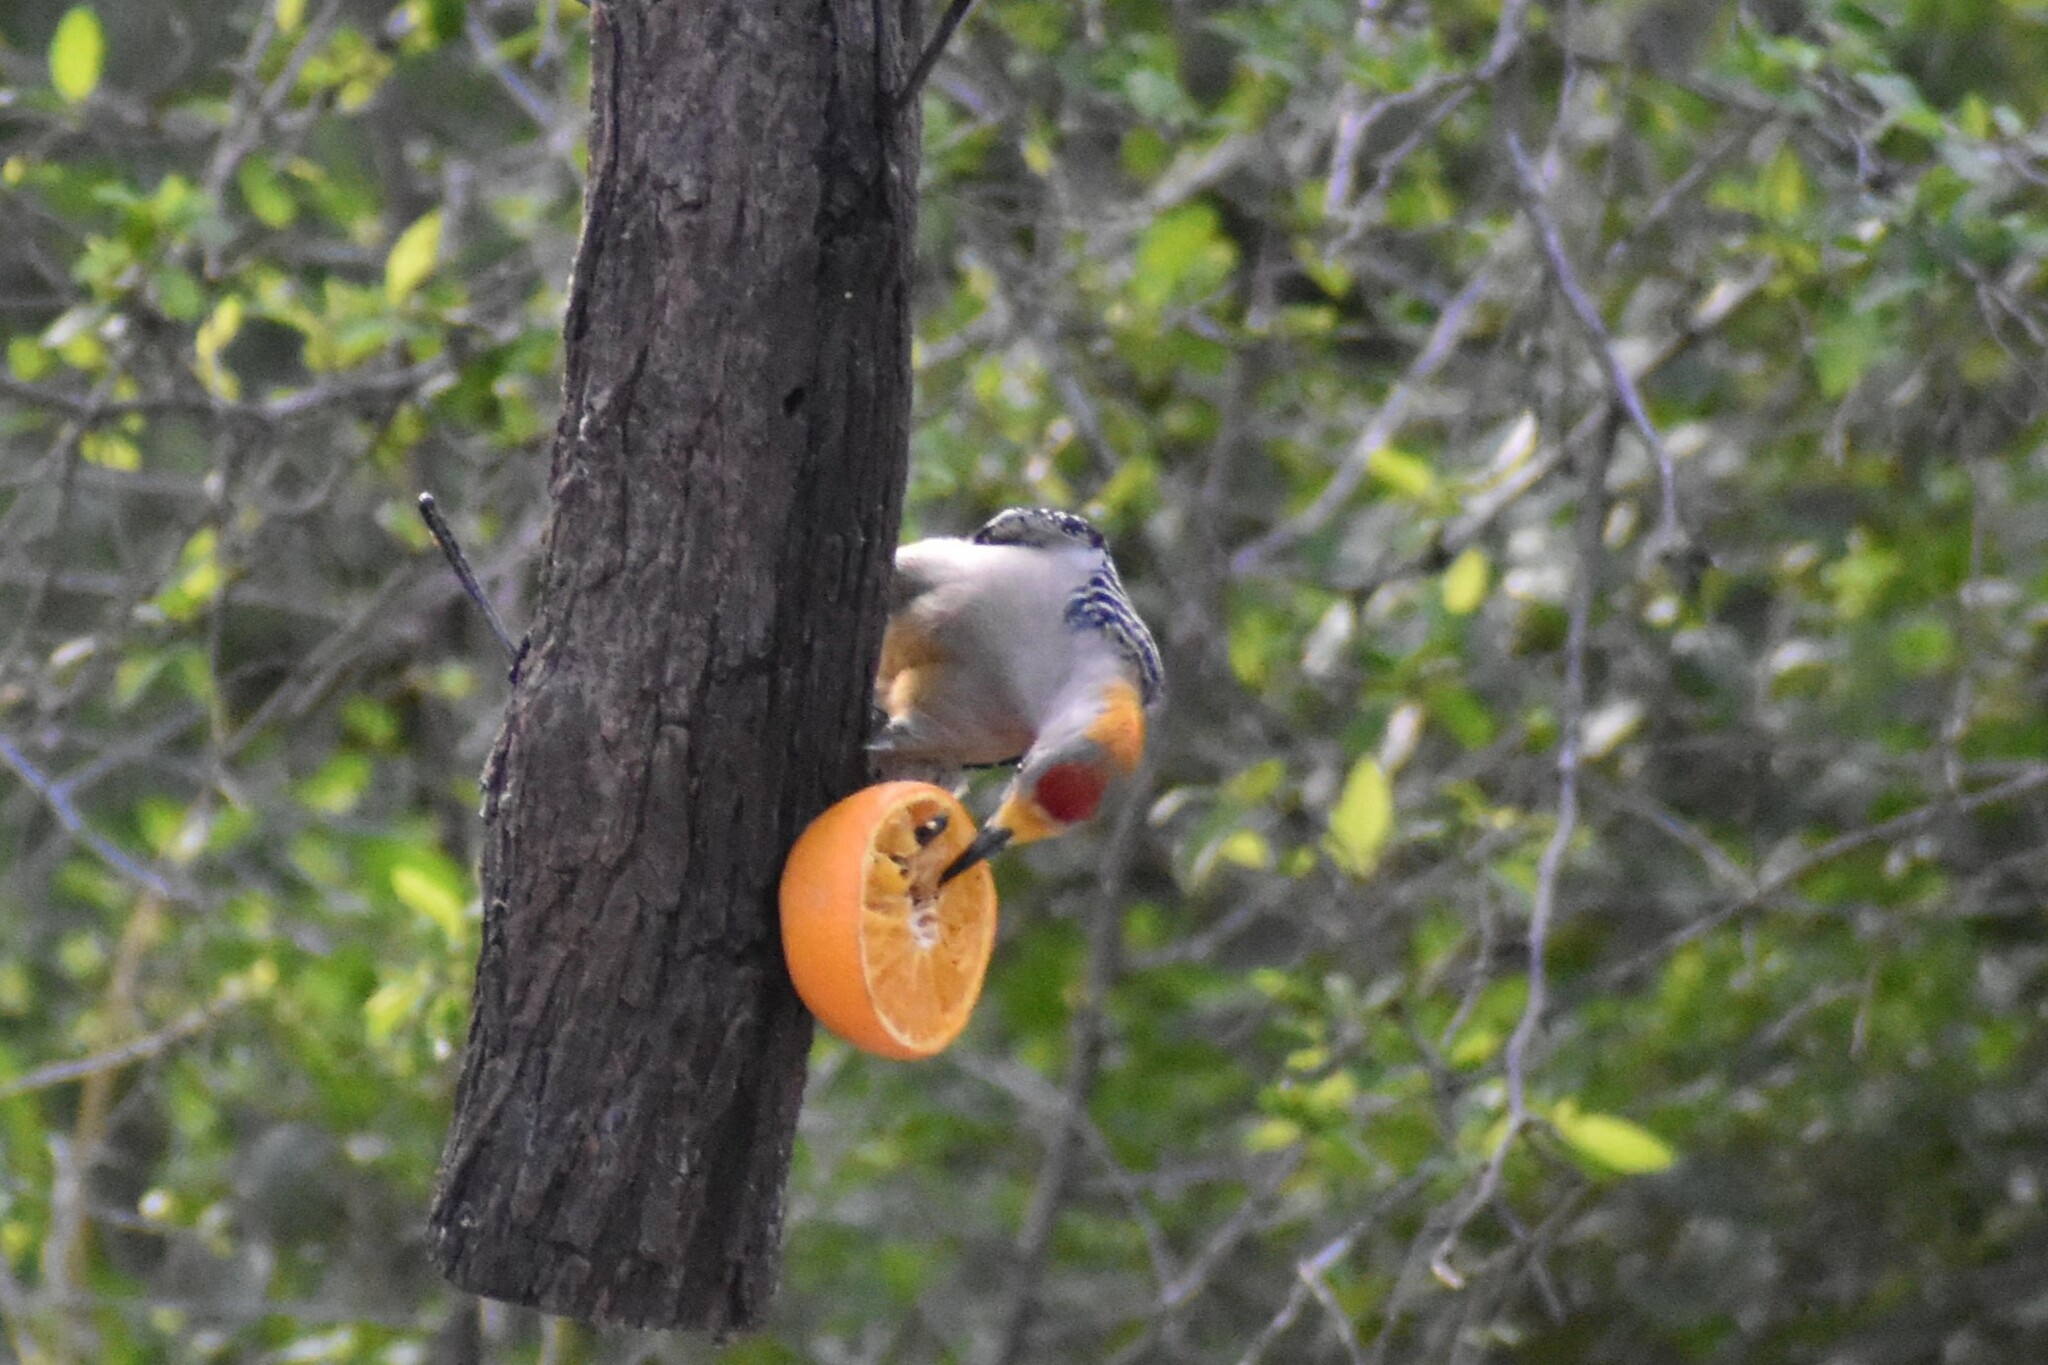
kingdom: Animalia
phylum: Chordata
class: Aves
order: Piciformes
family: Picidae
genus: Melanerpes
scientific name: Melanerpes aurifrons
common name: Golden-fronted woodpecker
